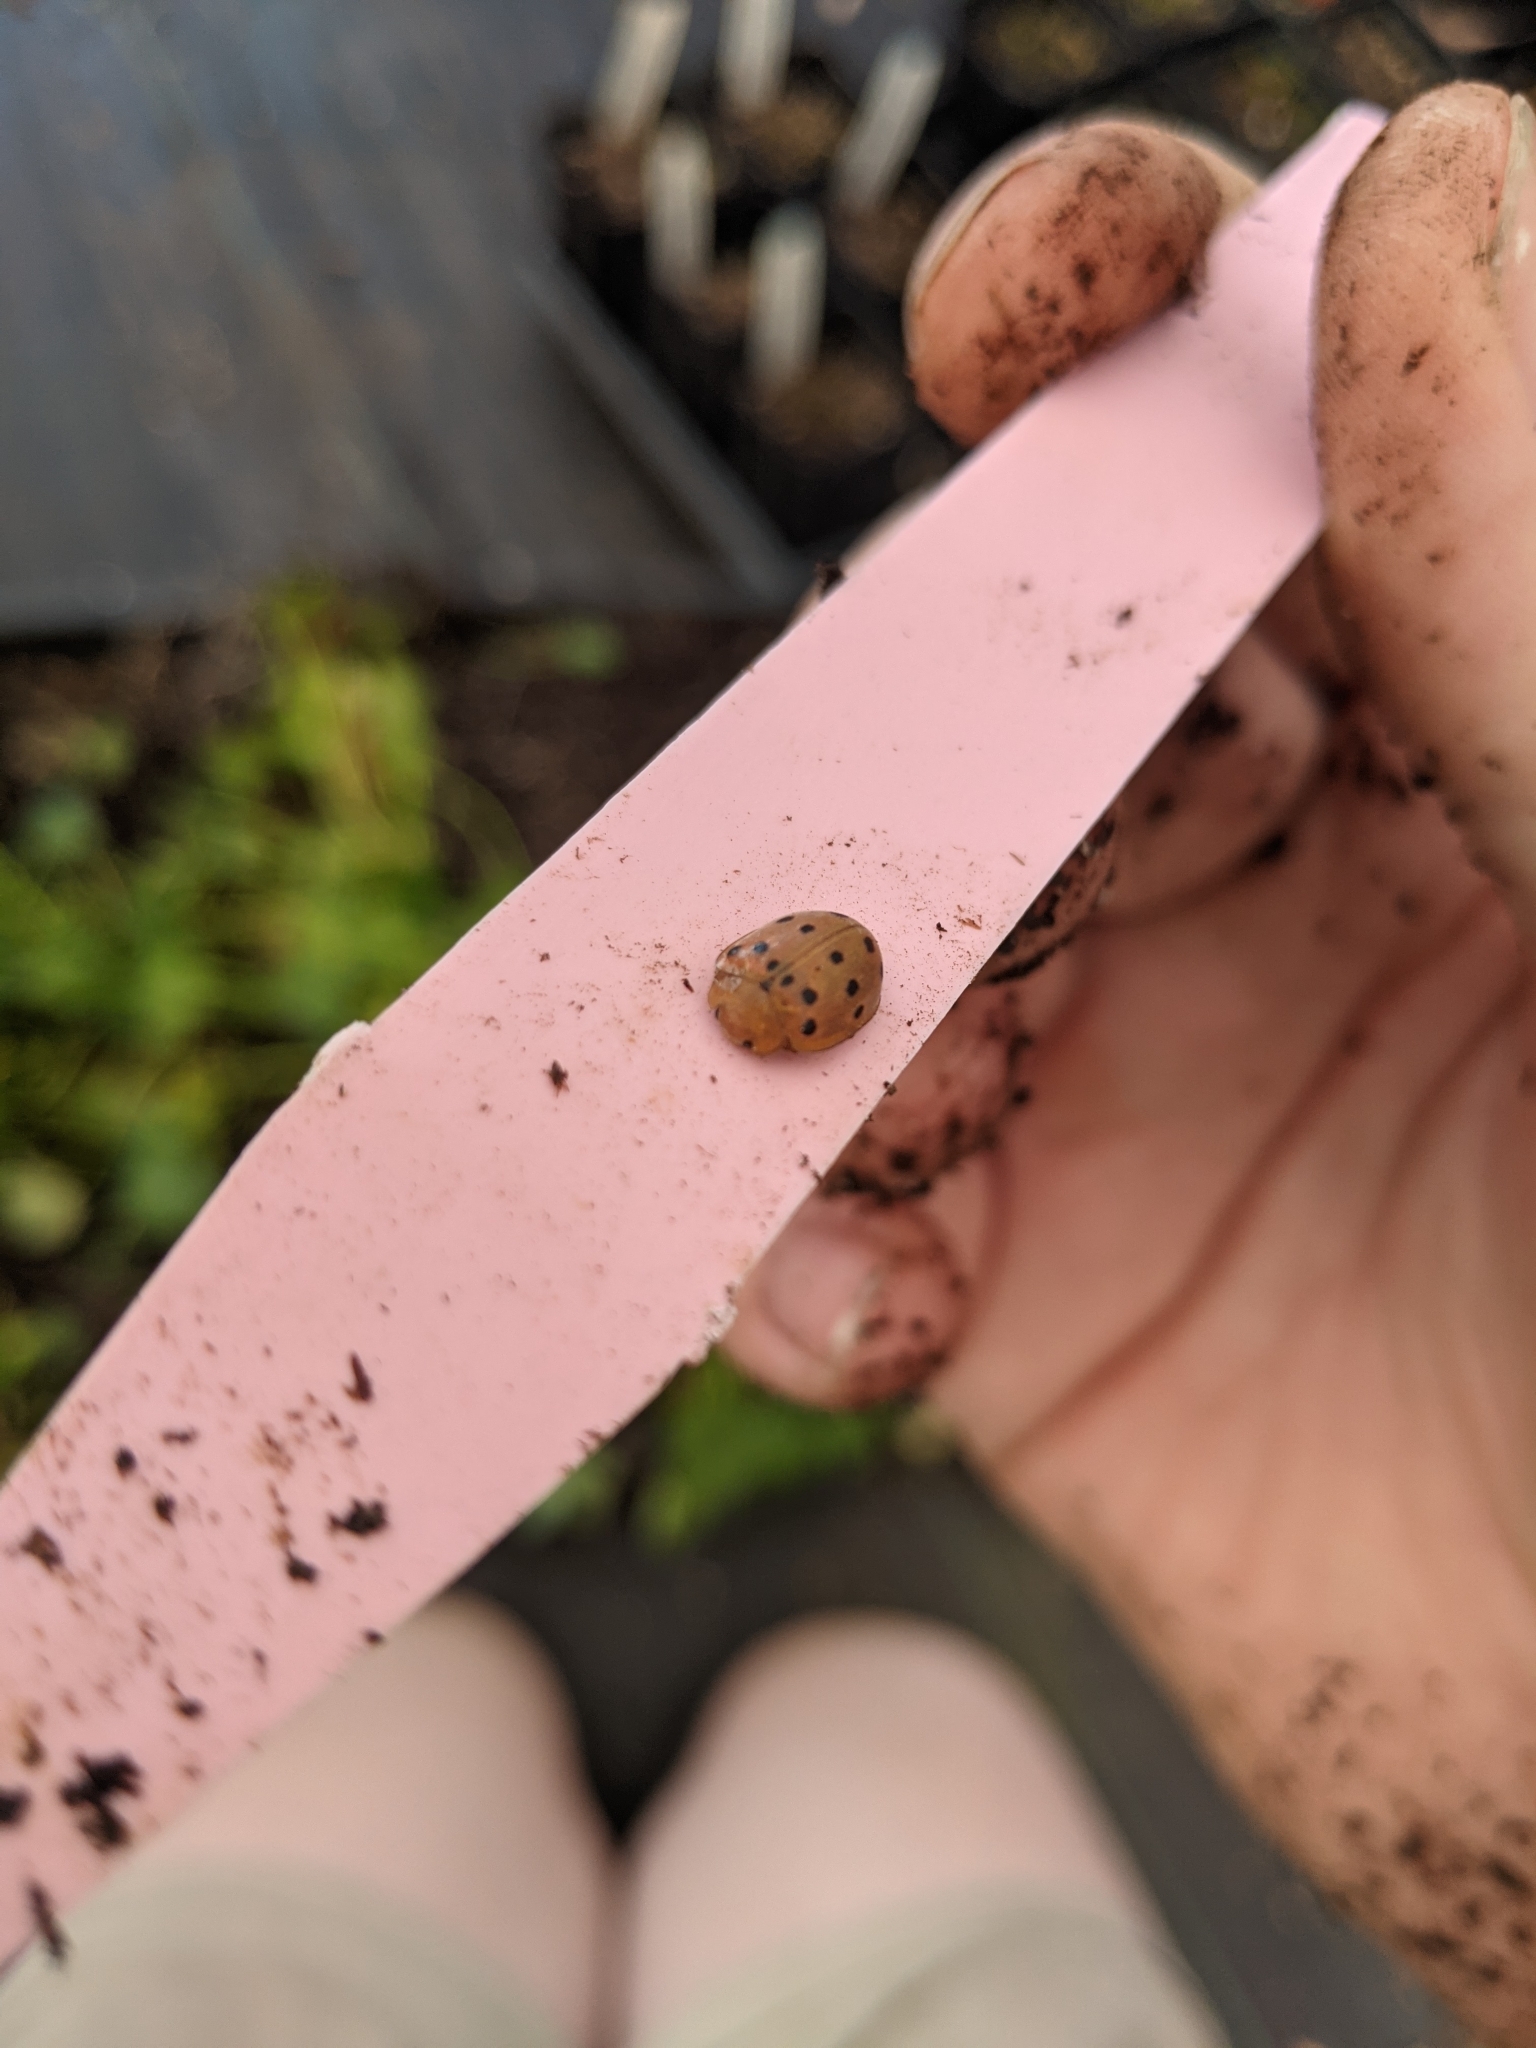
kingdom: Animalia
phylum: Arthropoda
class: Insecta
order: Coleoptera
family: Coccinellidae
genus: Epilachna
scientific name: Epilachna varivestis
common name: Ladybird beetle
